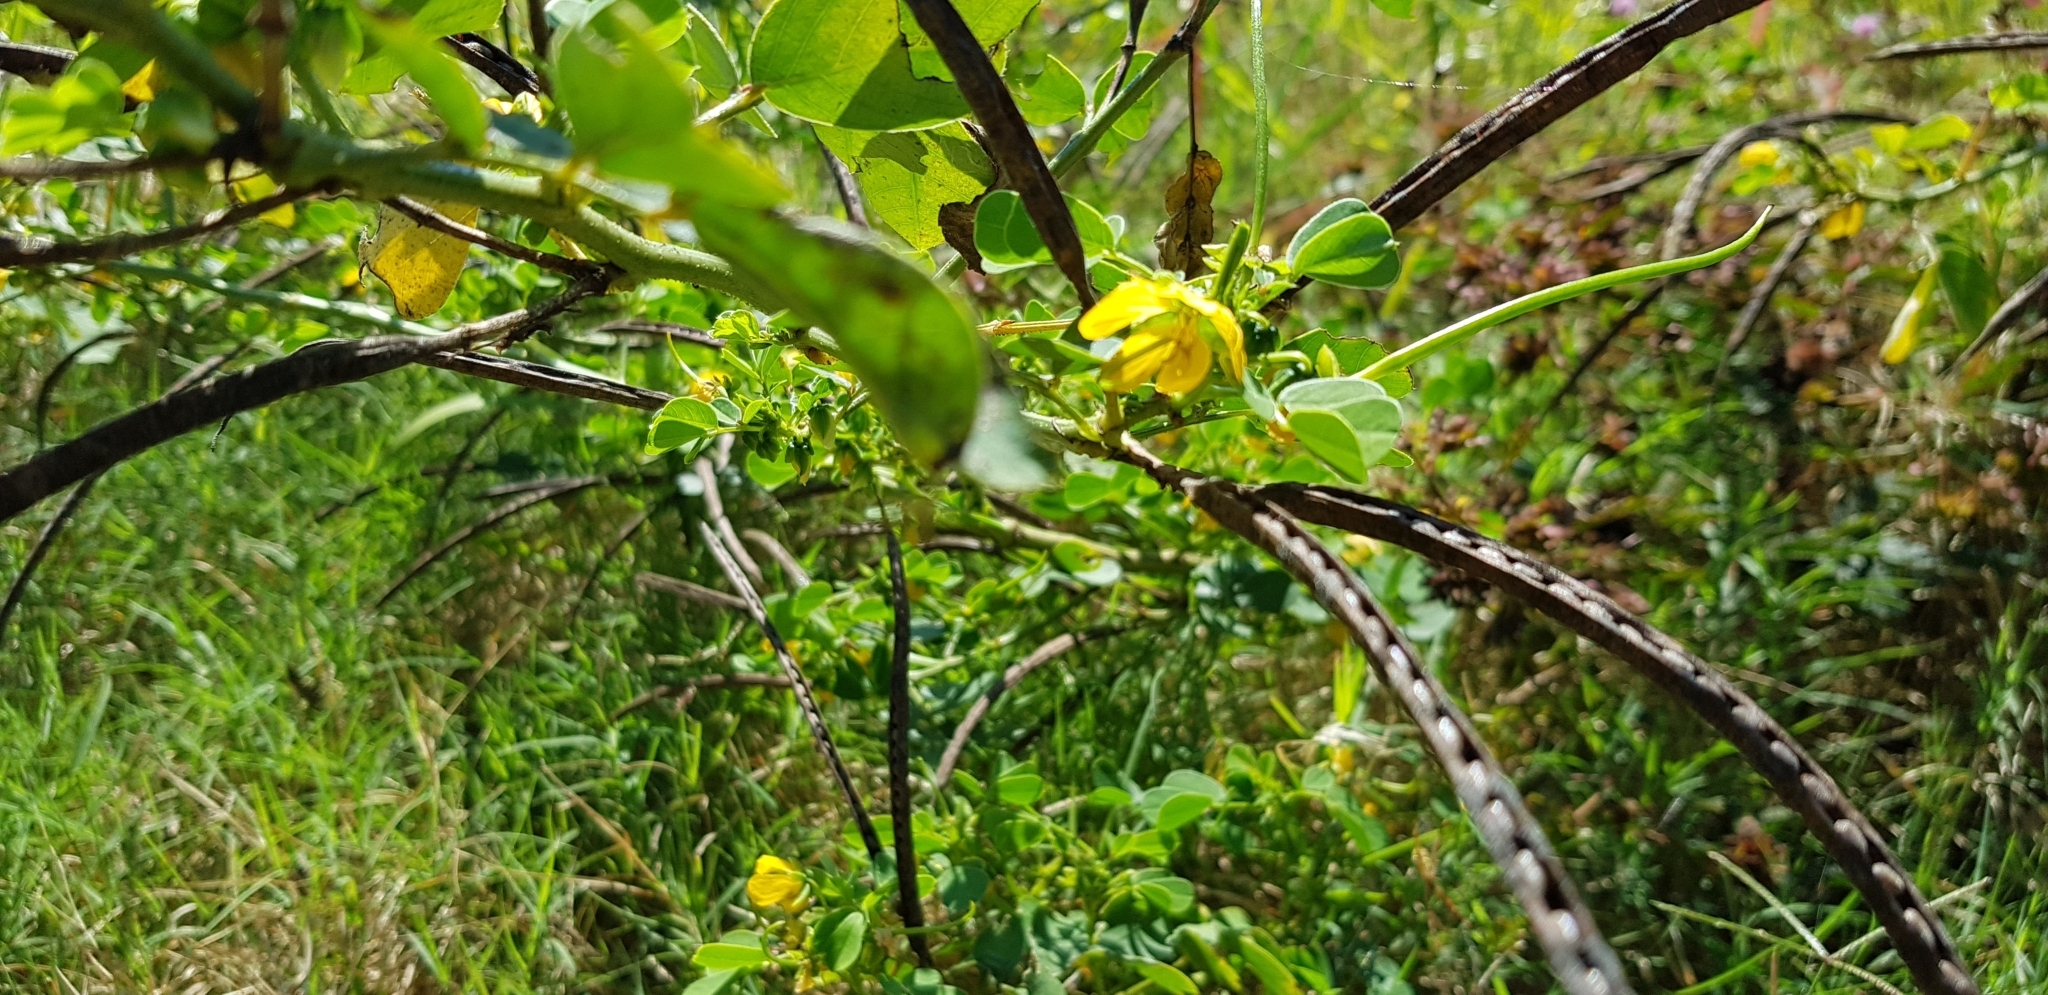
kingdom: Plantae
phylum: Tracheophyta
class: Magnoliopsida
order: Fabales
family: Fabaceae
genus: Senna
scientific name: Senna obtusifolia
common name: Java-bean
